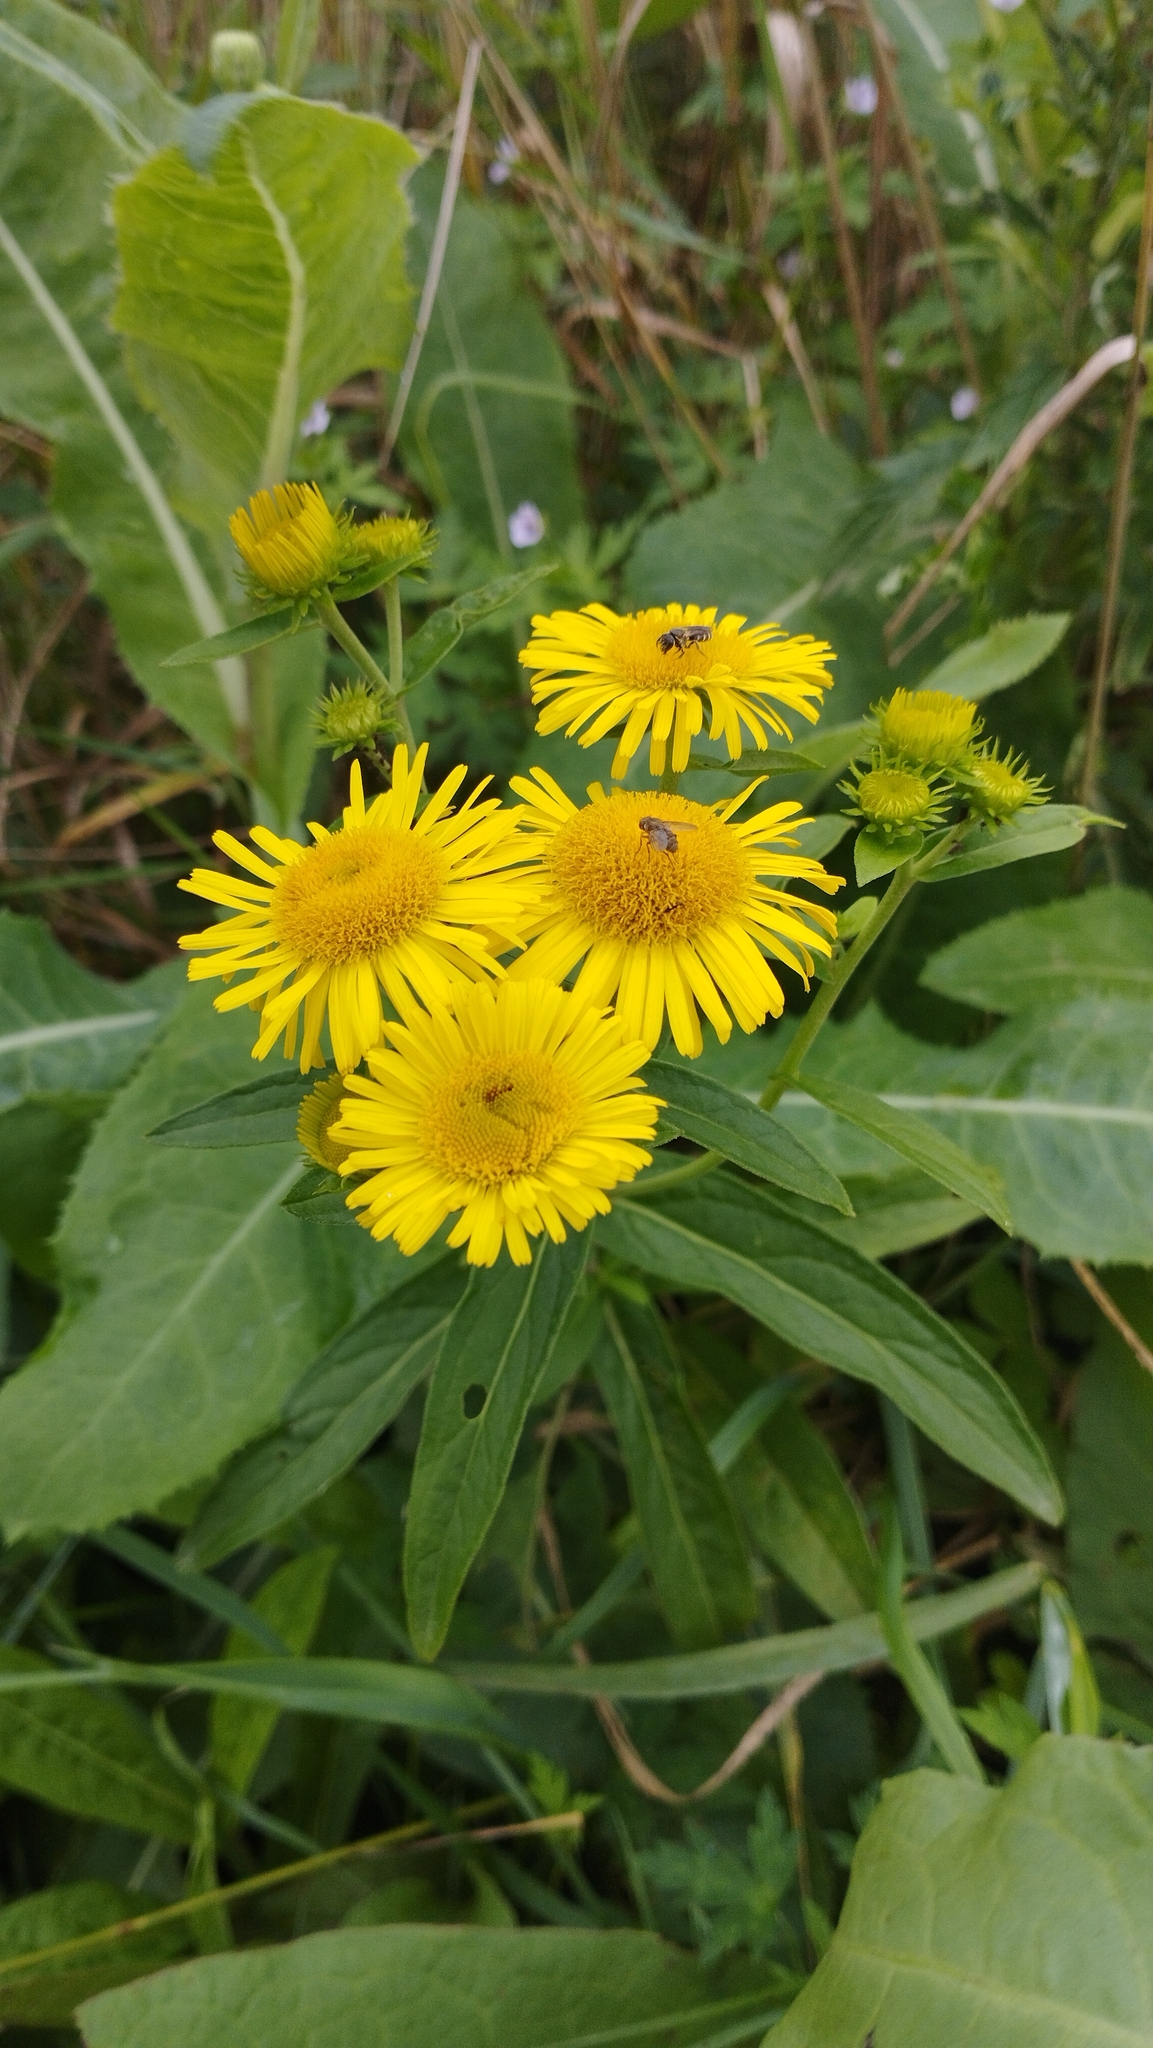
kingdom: Plantae
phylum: Tracheophyta
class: Magnoliopsida
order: Asterales
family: Asteraceae
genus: Inula
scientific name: Inula japonica
